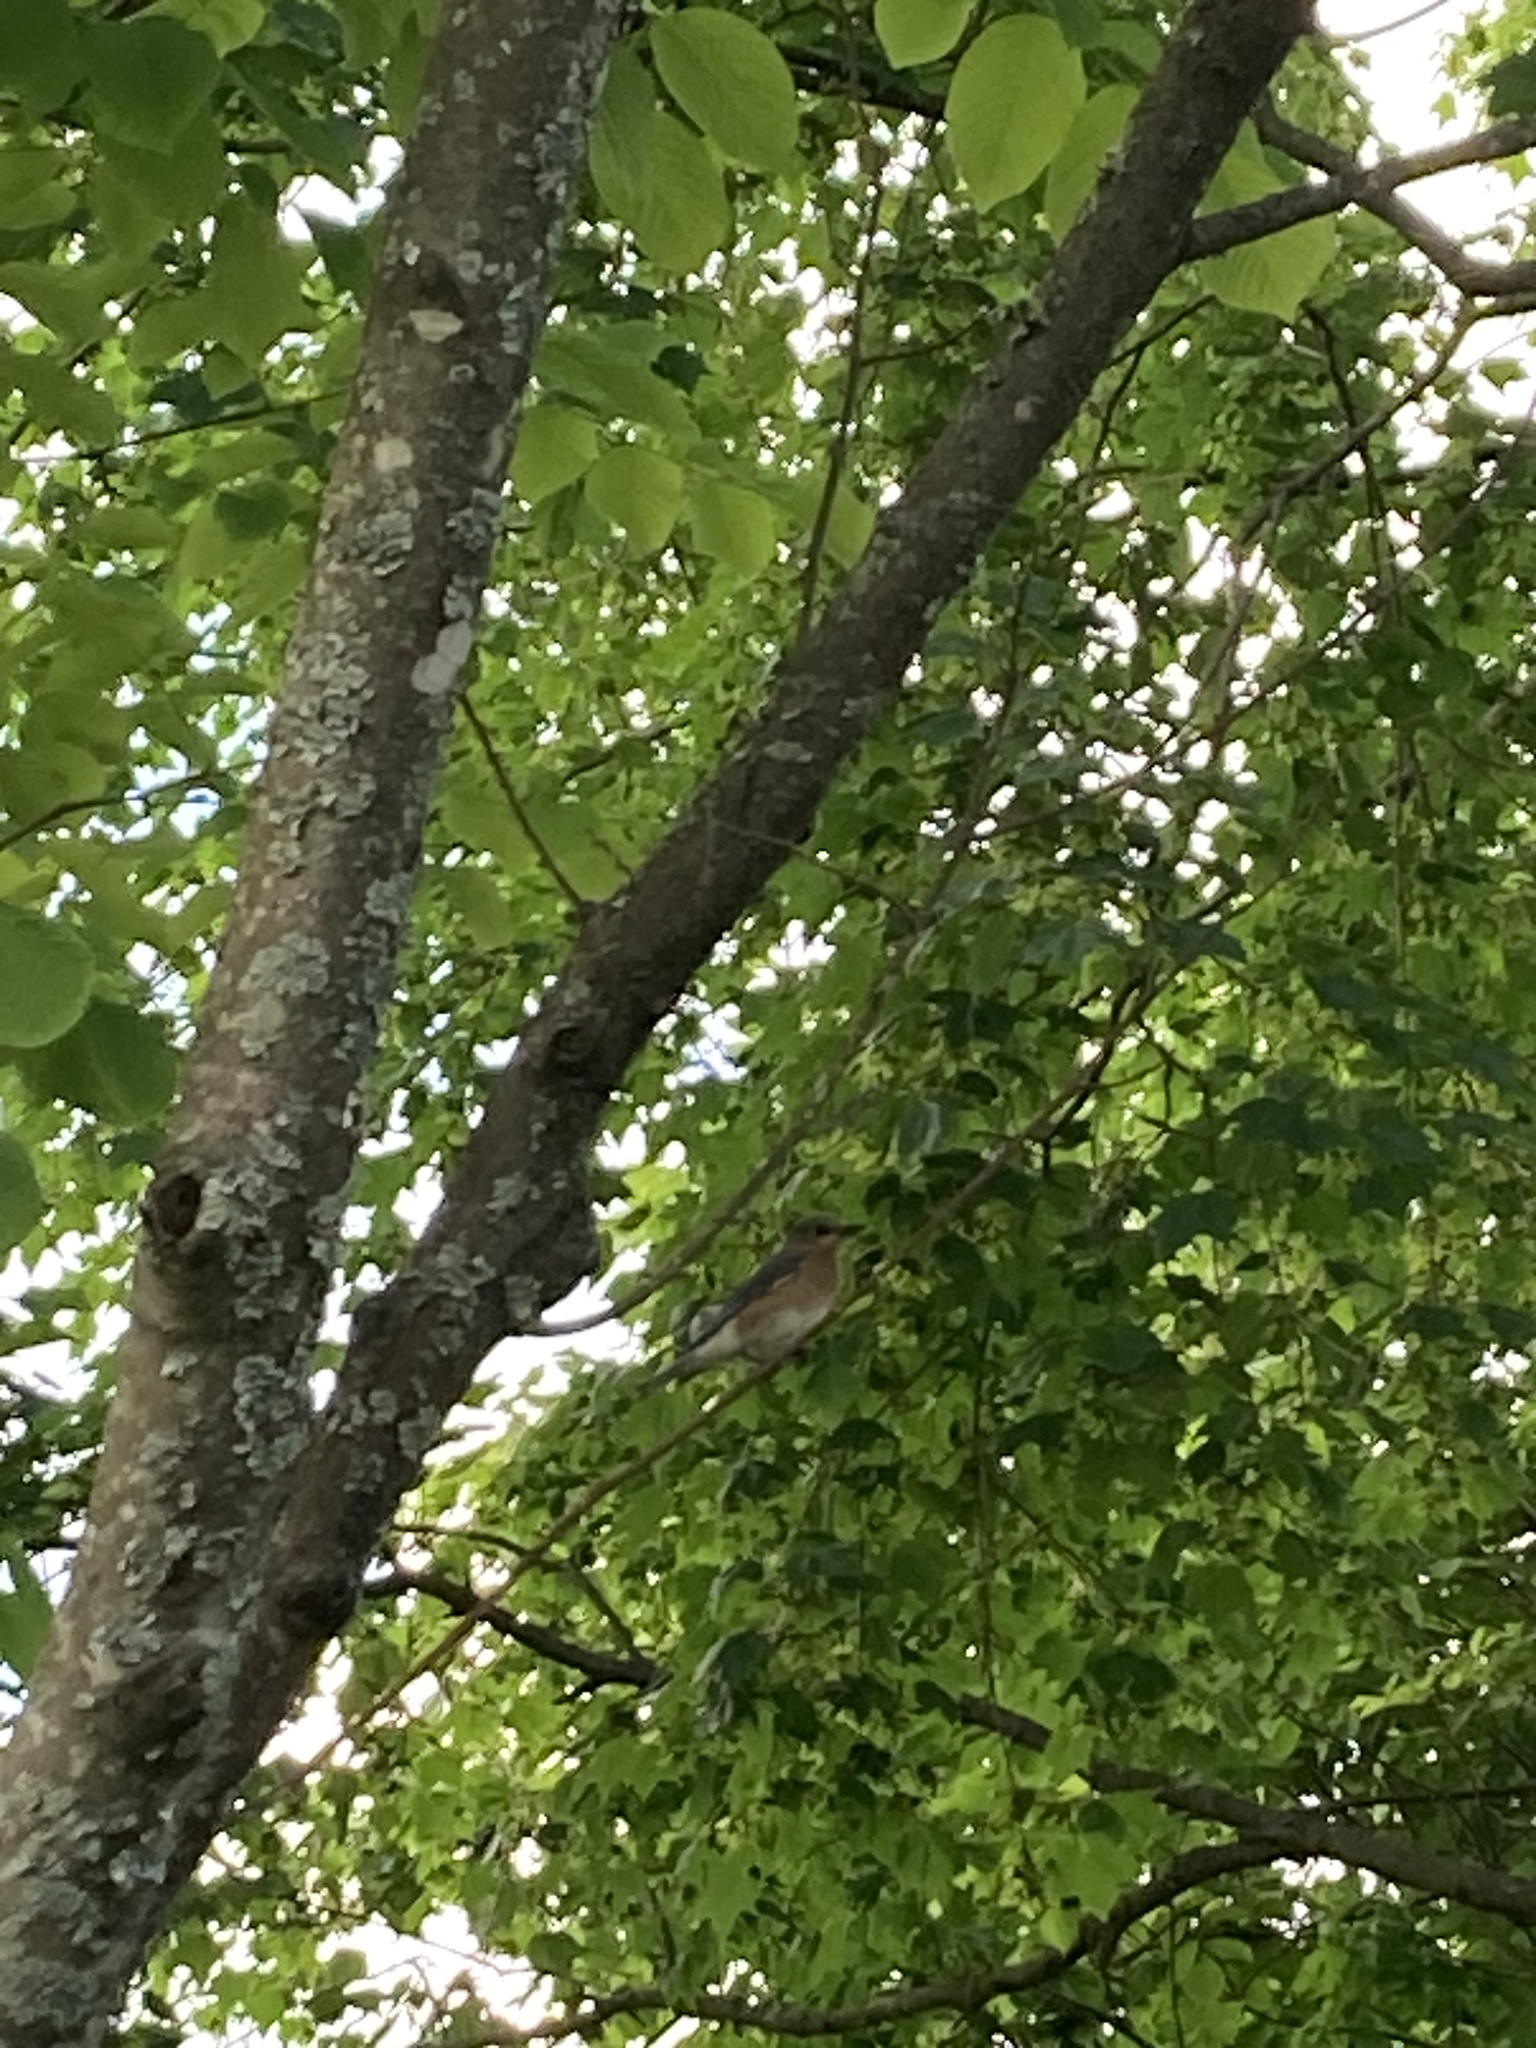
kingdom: Animalia
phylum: Chordata
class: Aves
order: Passeriformes
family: Turdidae
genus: Sialia
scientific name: Sialia sialis
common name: Eastern bluebird
